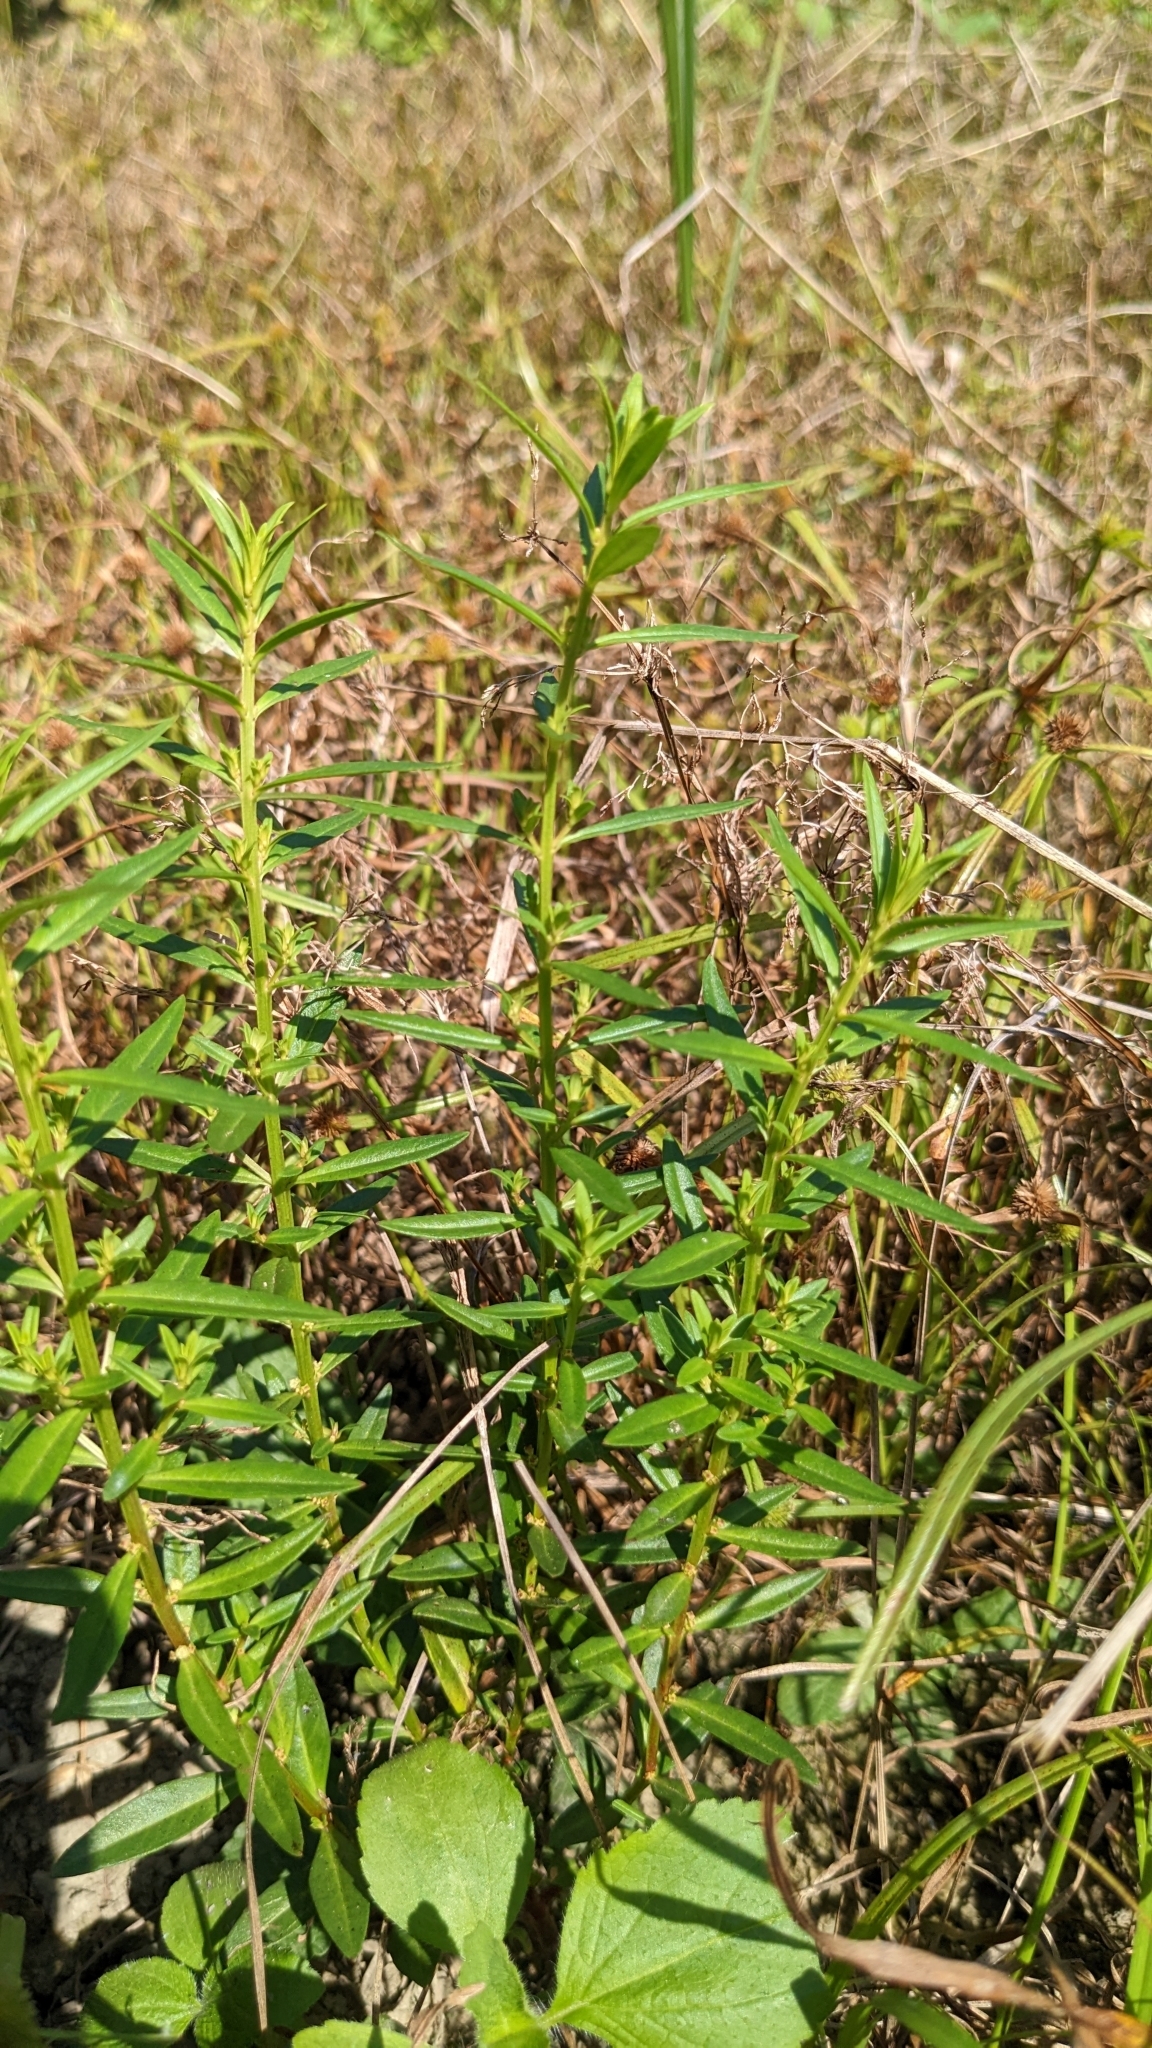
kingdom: Plantae
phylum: Tracheophyta
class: Magnoliopsida
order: Myrtales
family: Lythraceae
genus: Ammannia
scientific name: Ammannia baccifera
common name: Blistering ammania
